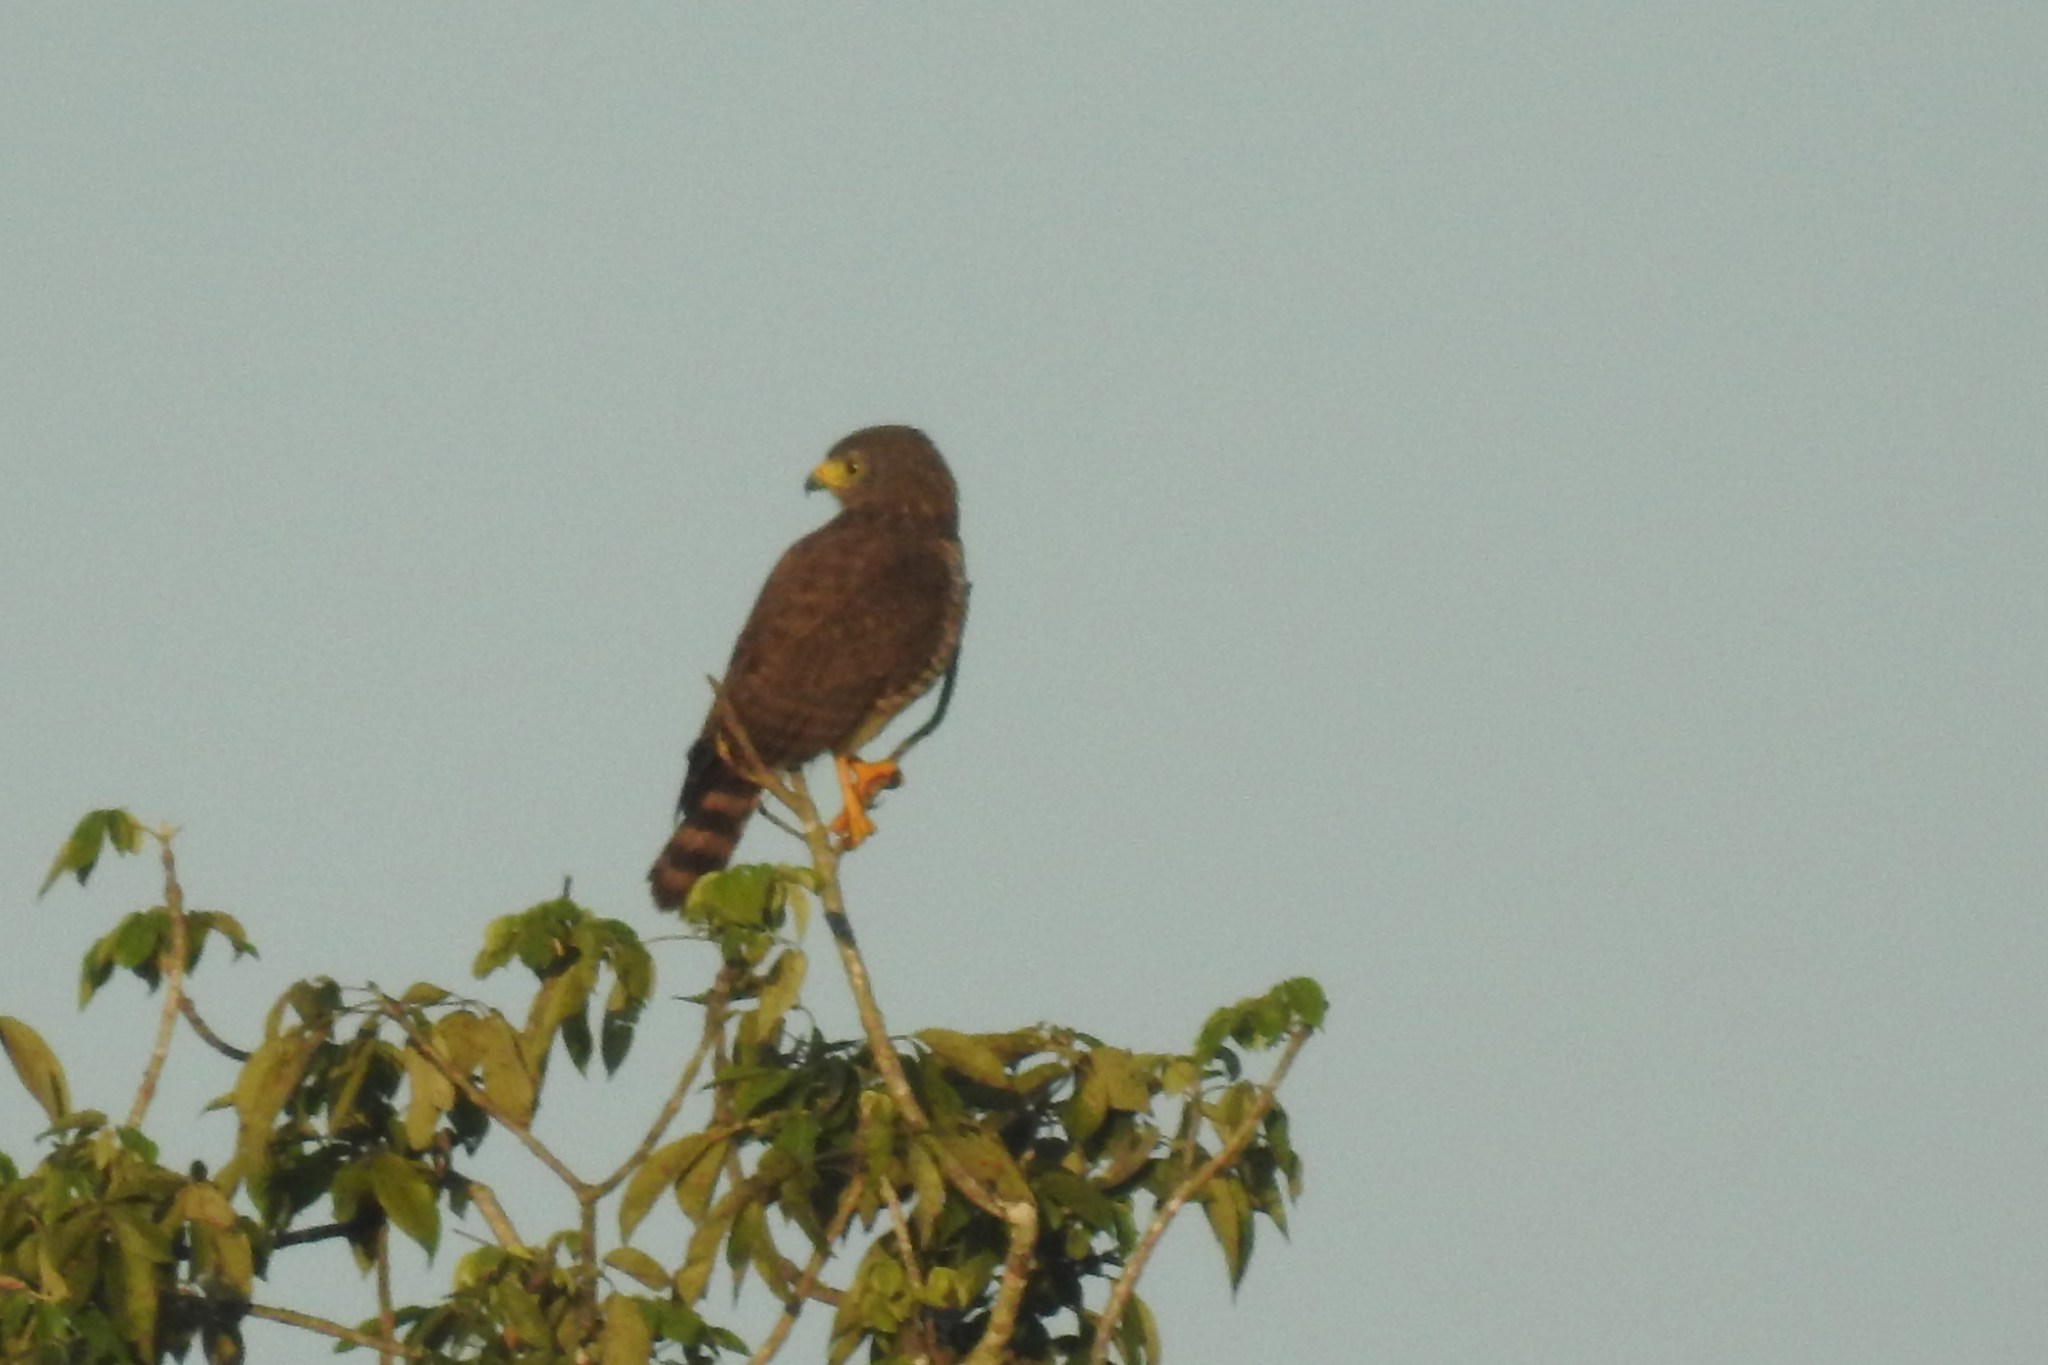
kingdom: Animalia
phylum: Chordata
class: Aves
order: Accipitriformes
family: Accipitridae
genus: Rupornis
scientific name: Rupornis magnirostris
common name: Roadside hawk
